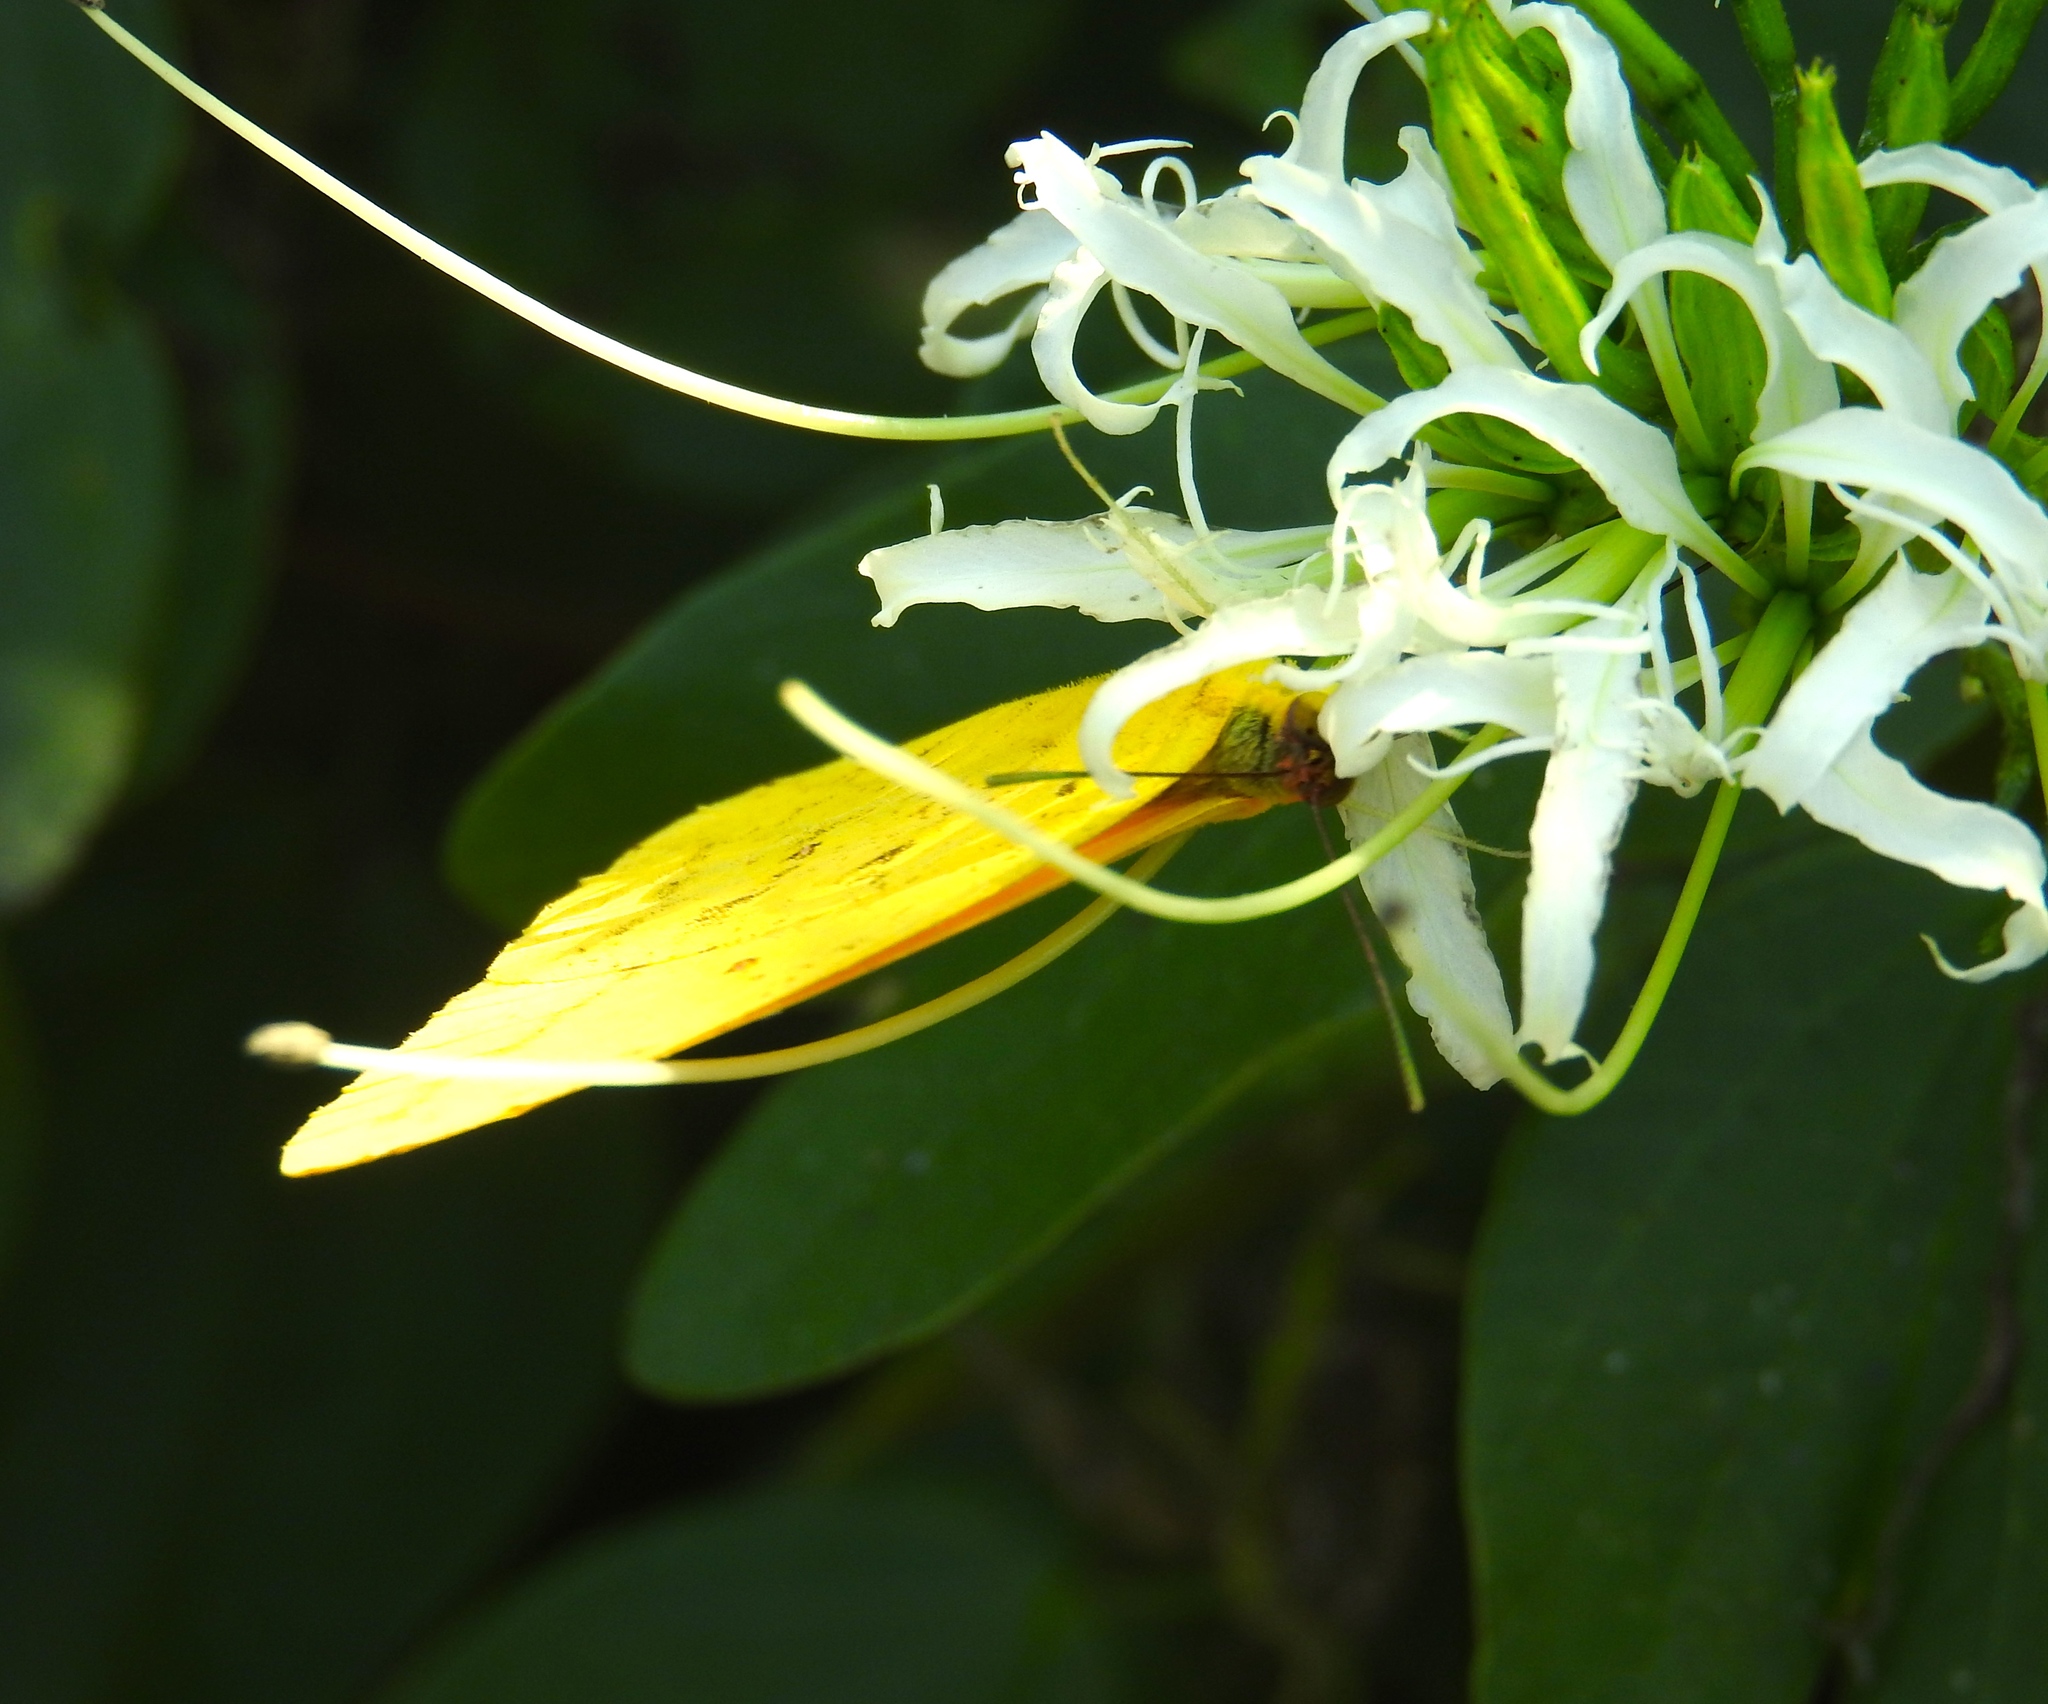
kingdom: Plantae
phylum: Tracheophyta
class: Magnoliopsida
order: Fabales
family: Fabaceae
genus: Bauhinia
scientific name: Bauhinia divaricata
